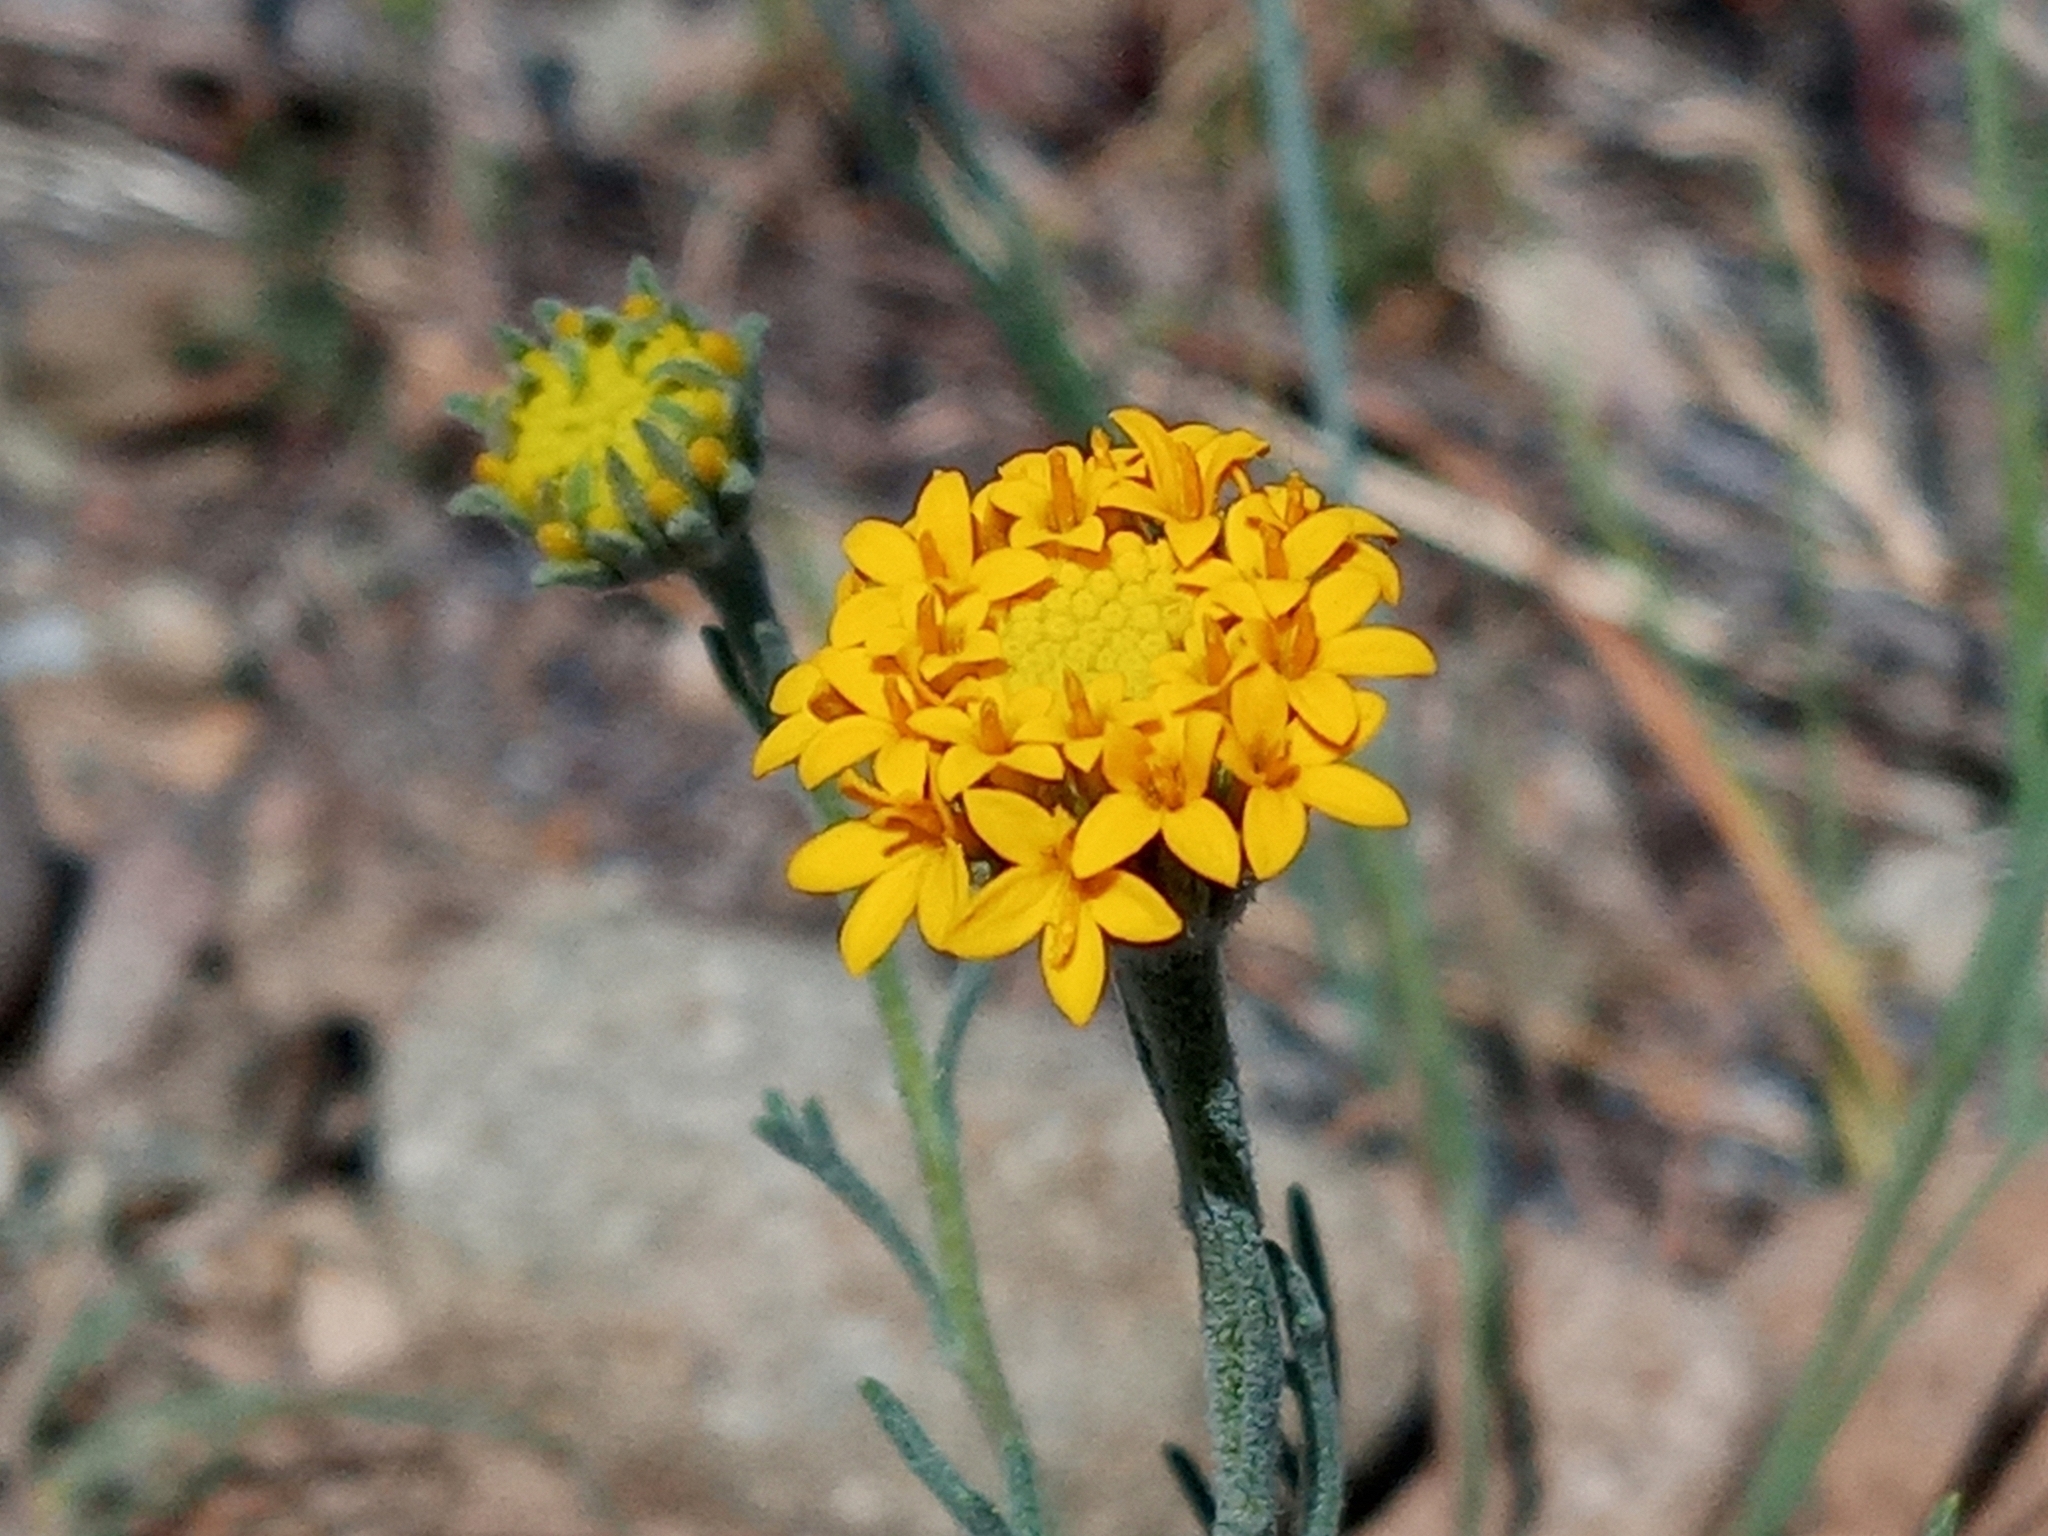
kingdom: Plantae
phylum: Tracheophyta
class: Magnoliopsida
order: Asterales
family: Asteraceae
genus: Chaenactis
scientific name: Chaenactis glabriuscula
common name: Yellow pincushion
